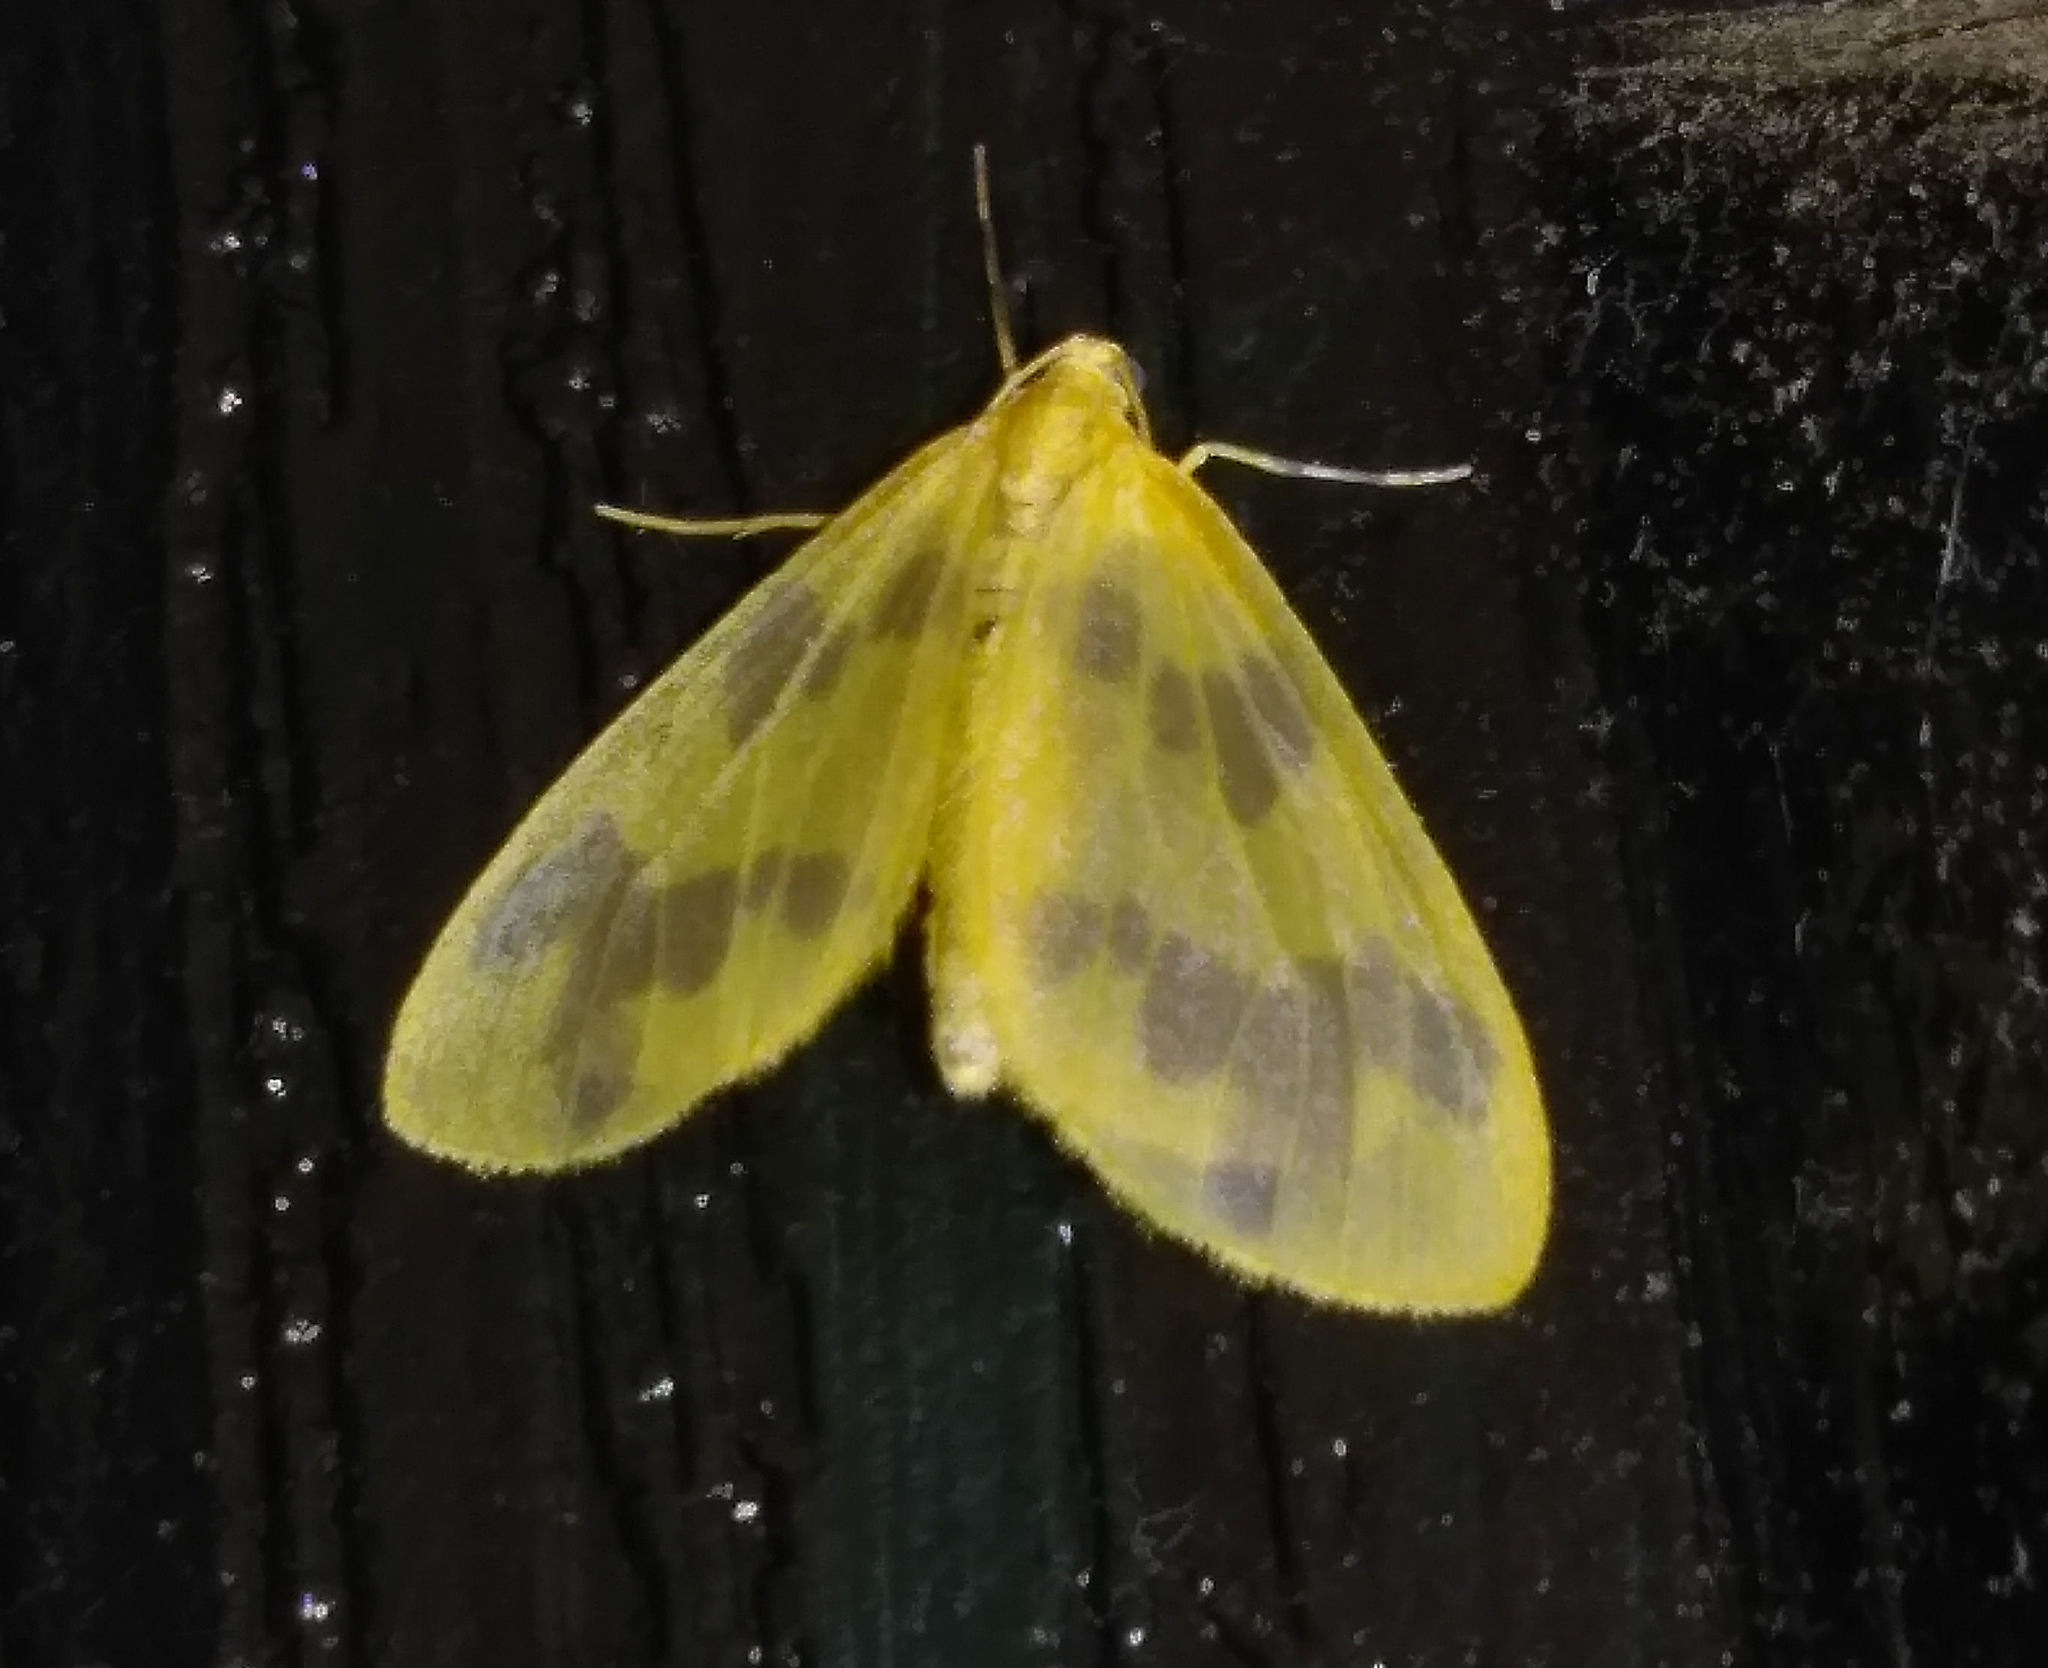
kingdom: Animalia
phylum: Arthropoda
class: Insecta
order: Lepidoptera
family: Geometridae
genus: Eubaphe
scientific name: Eubaphe mendica
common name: Beggar
